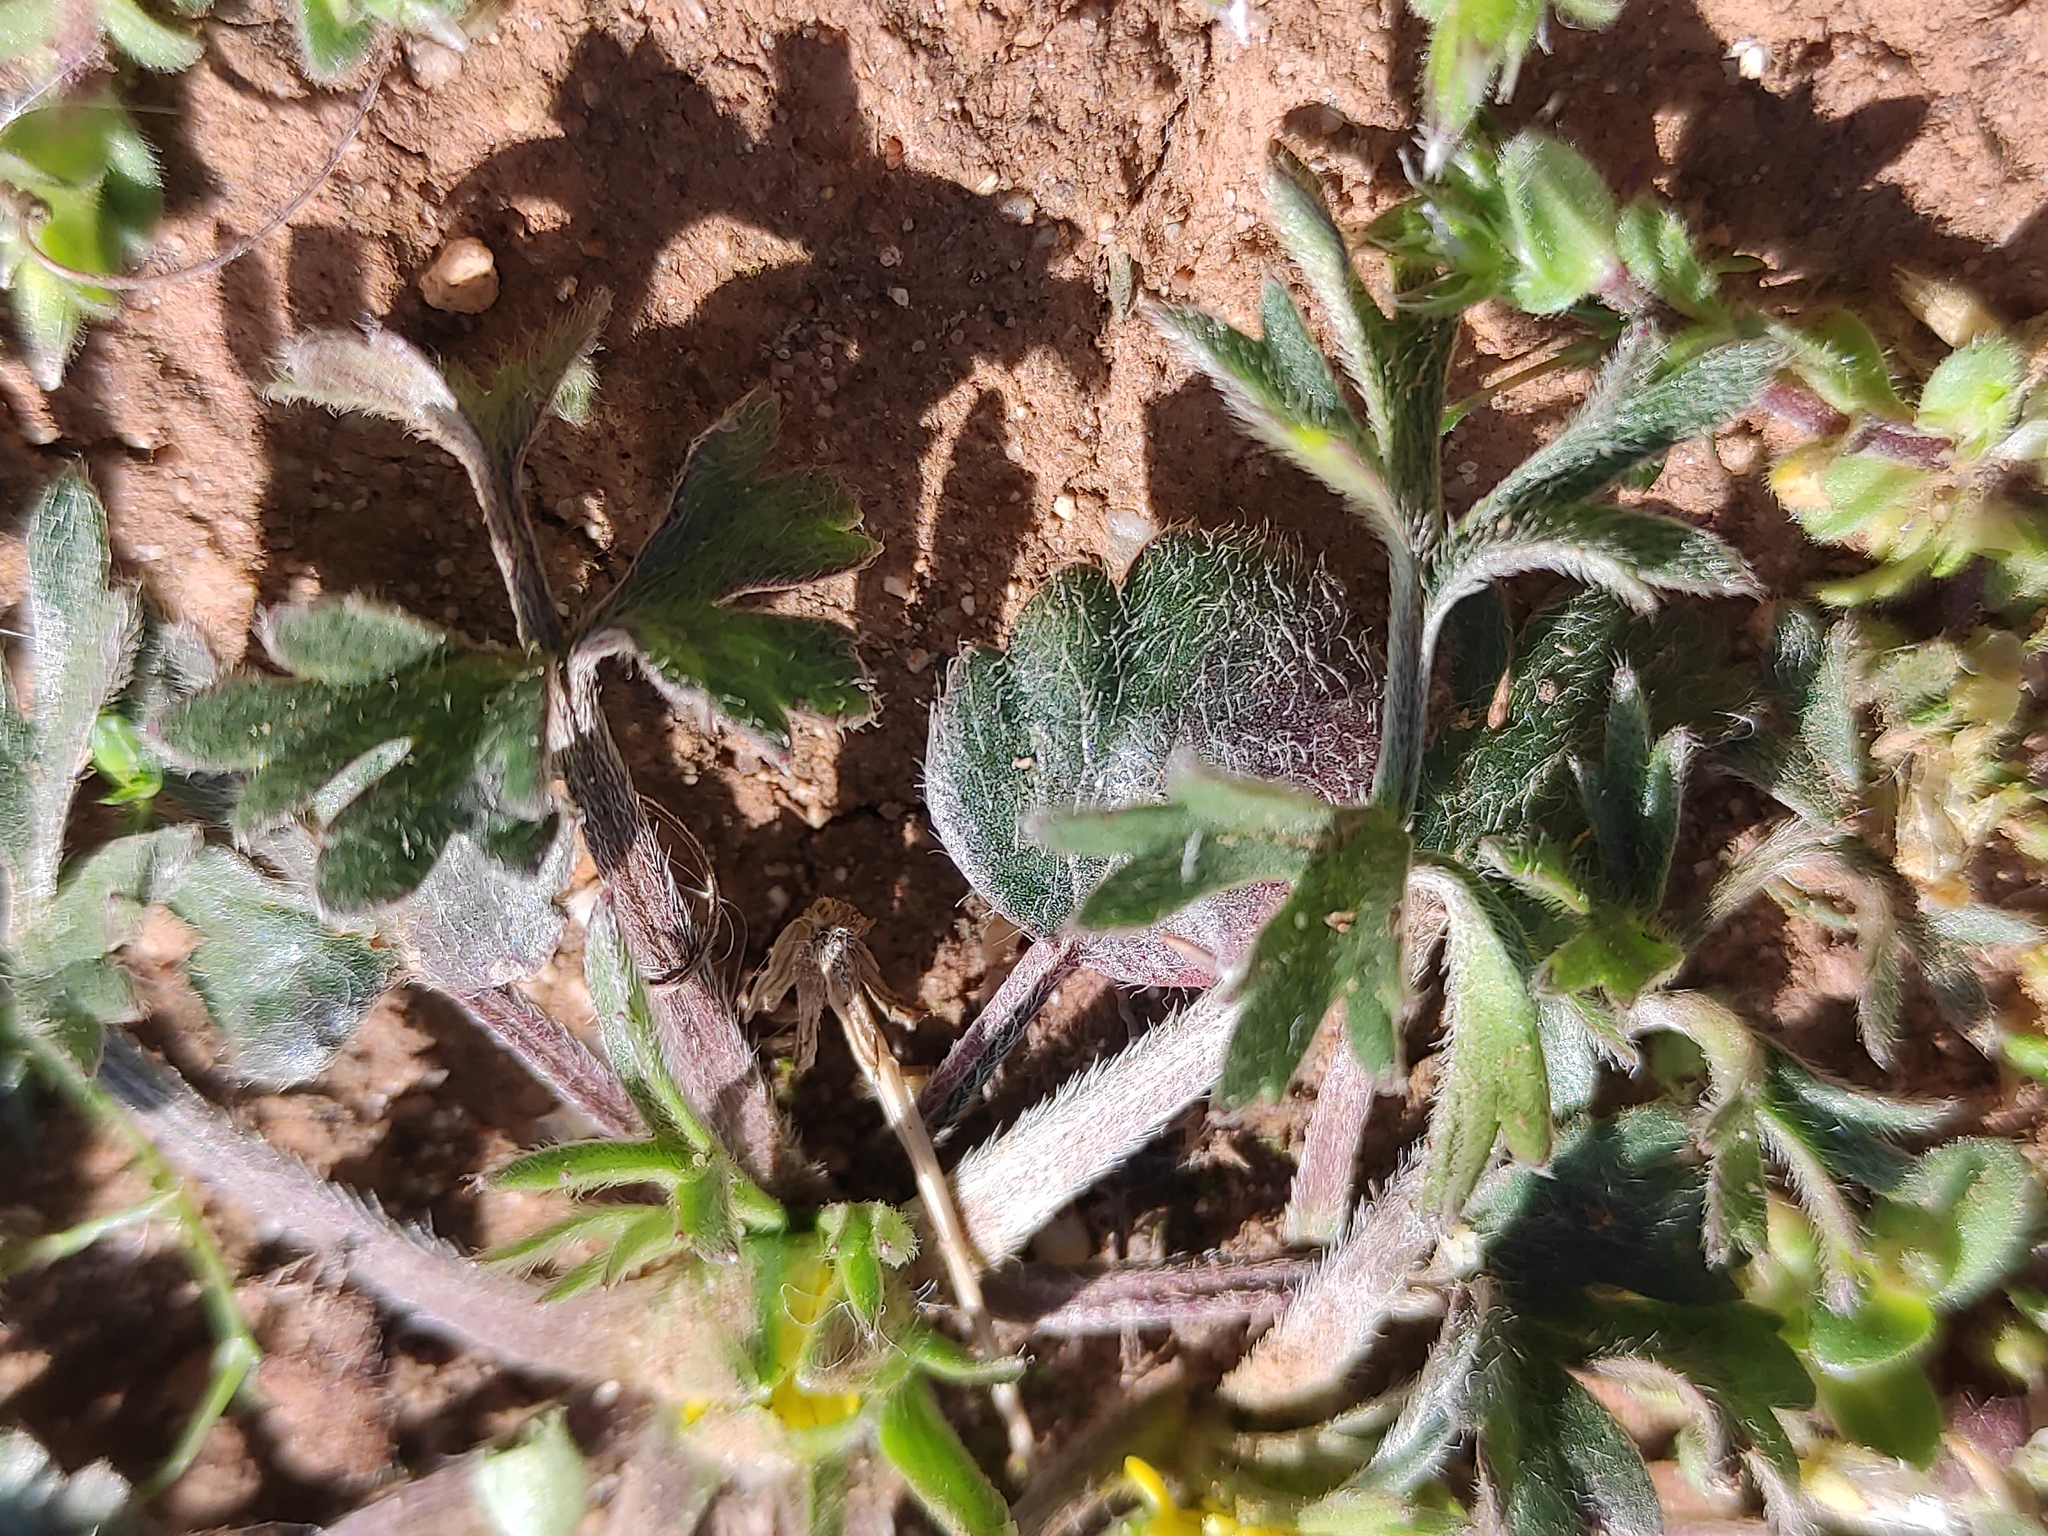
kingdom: Plantae
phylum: Tracheophyta
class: Magnoliopsida
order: Ranunculales
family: Ranunculaceae
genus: Ranunculus
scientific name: Ranunculus paludosus
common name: Jersey buttercup
